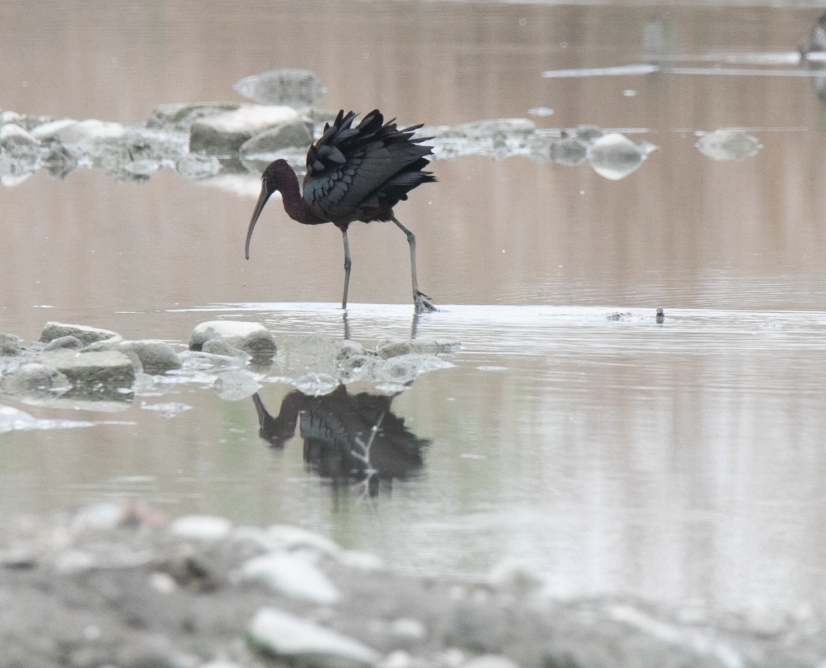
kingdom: Animalia
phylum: Chordata
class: Aves
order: Pelecaniformes
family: Threskiornithidae
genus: Plegadis
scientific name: Plegadis falcinellus
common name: Glossy ibis
